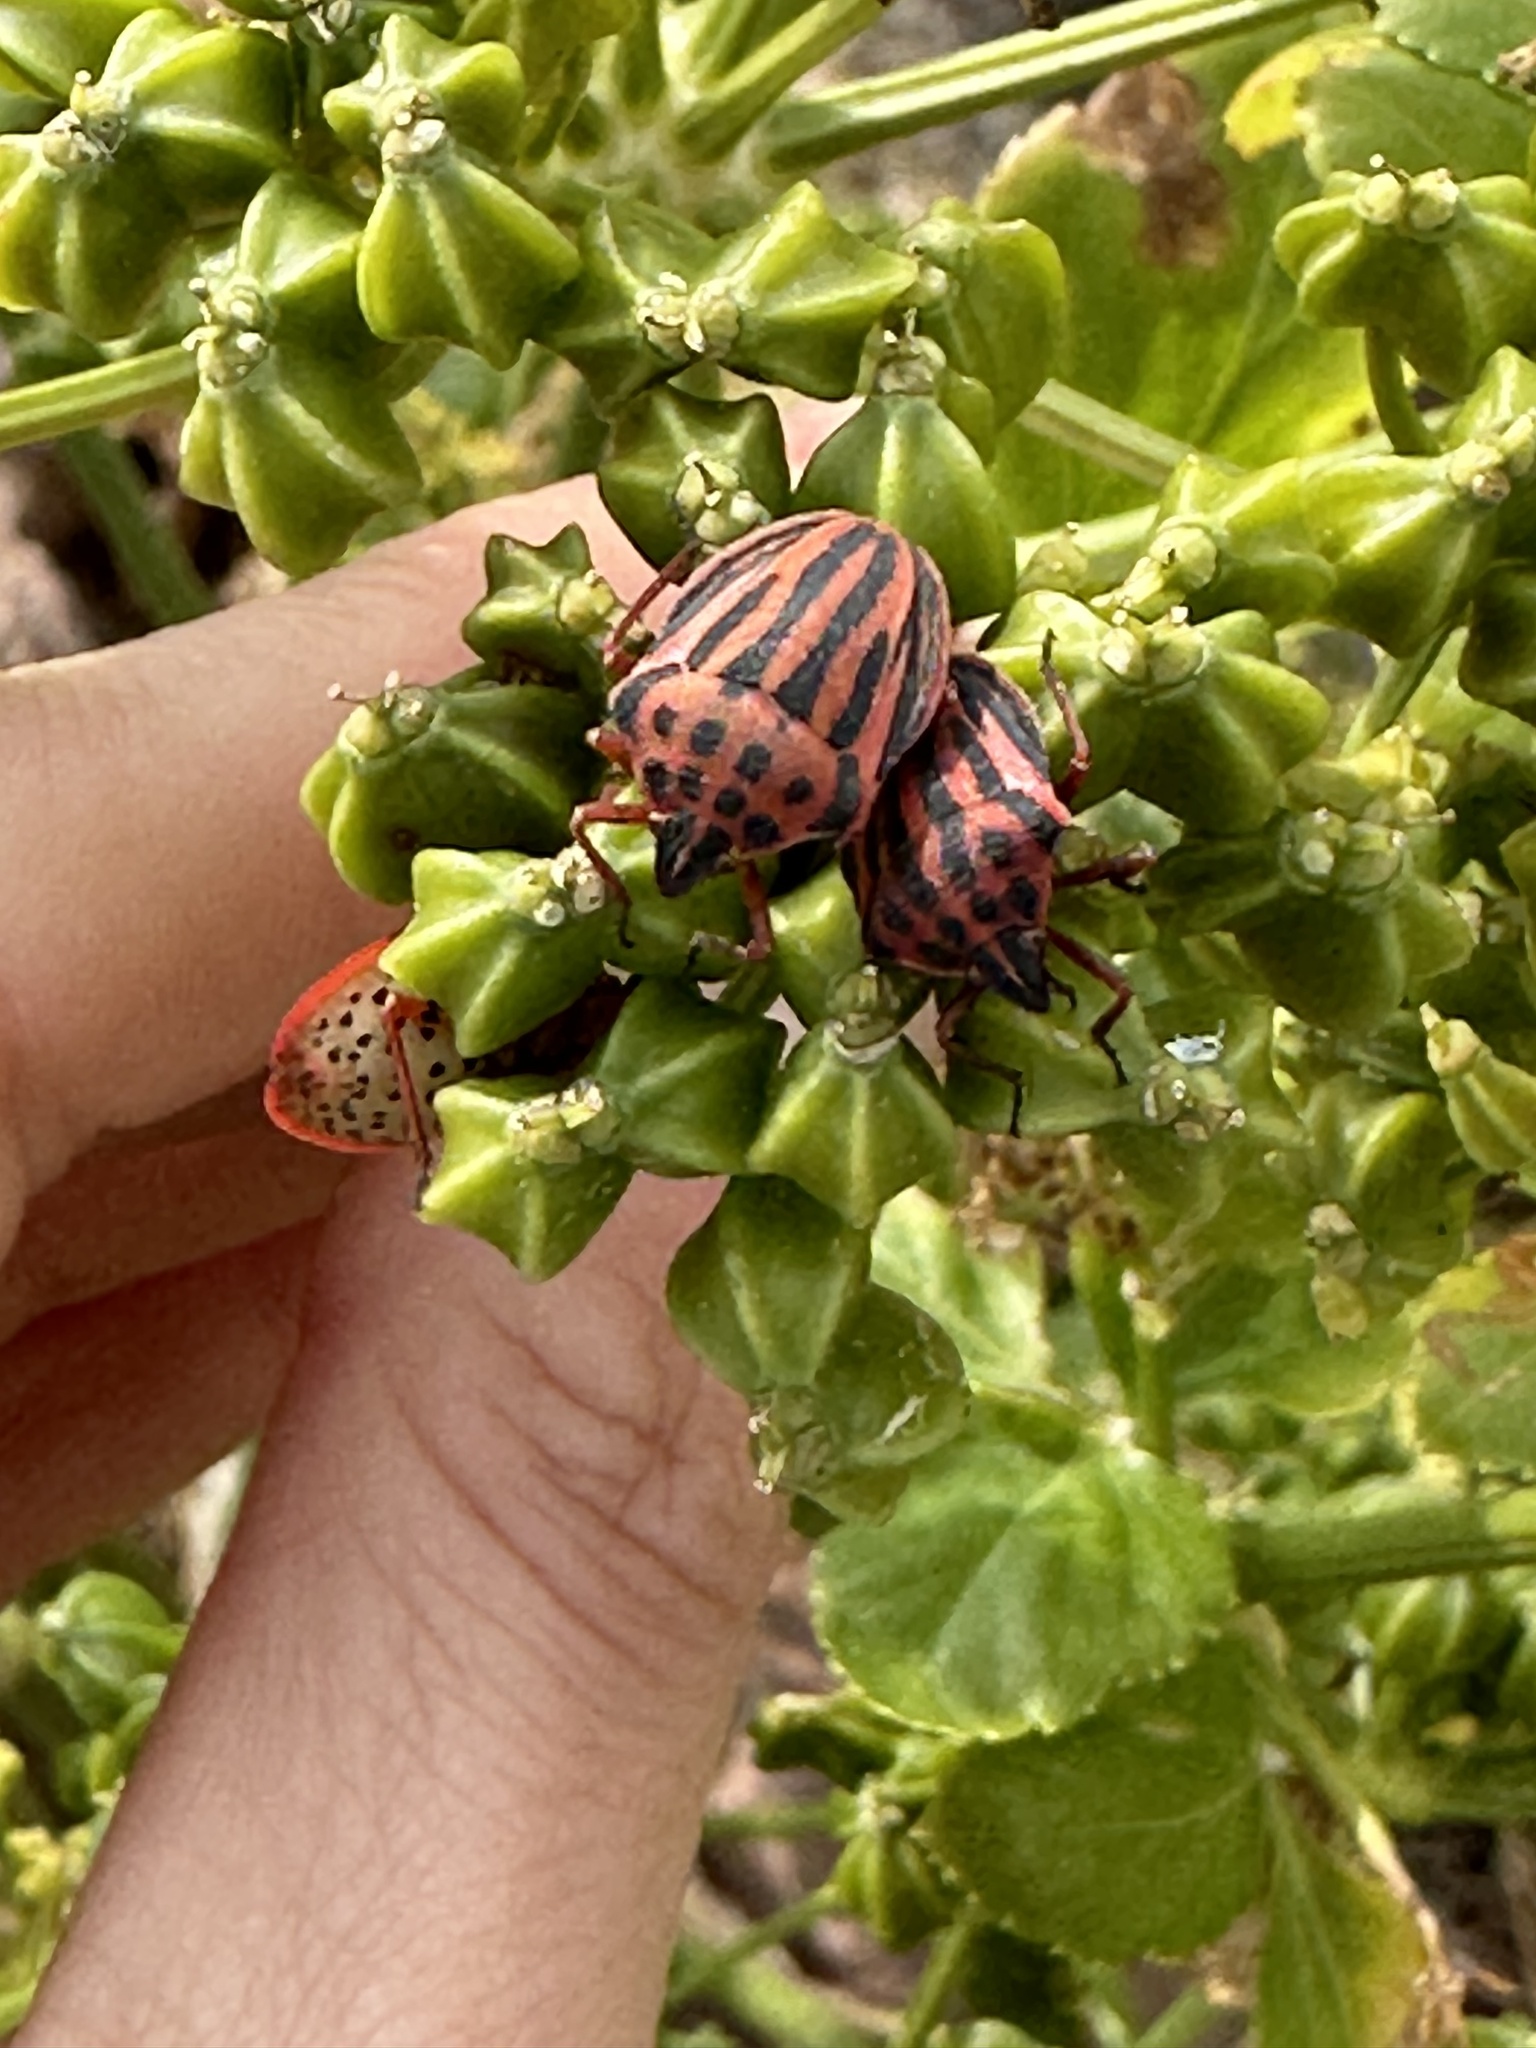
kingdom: Animalia
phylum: Arthropoda
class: Insecta
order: Hemiptera
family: Pentatomidae
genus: Graphosoma
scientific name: Graphosoma semipunctatum
